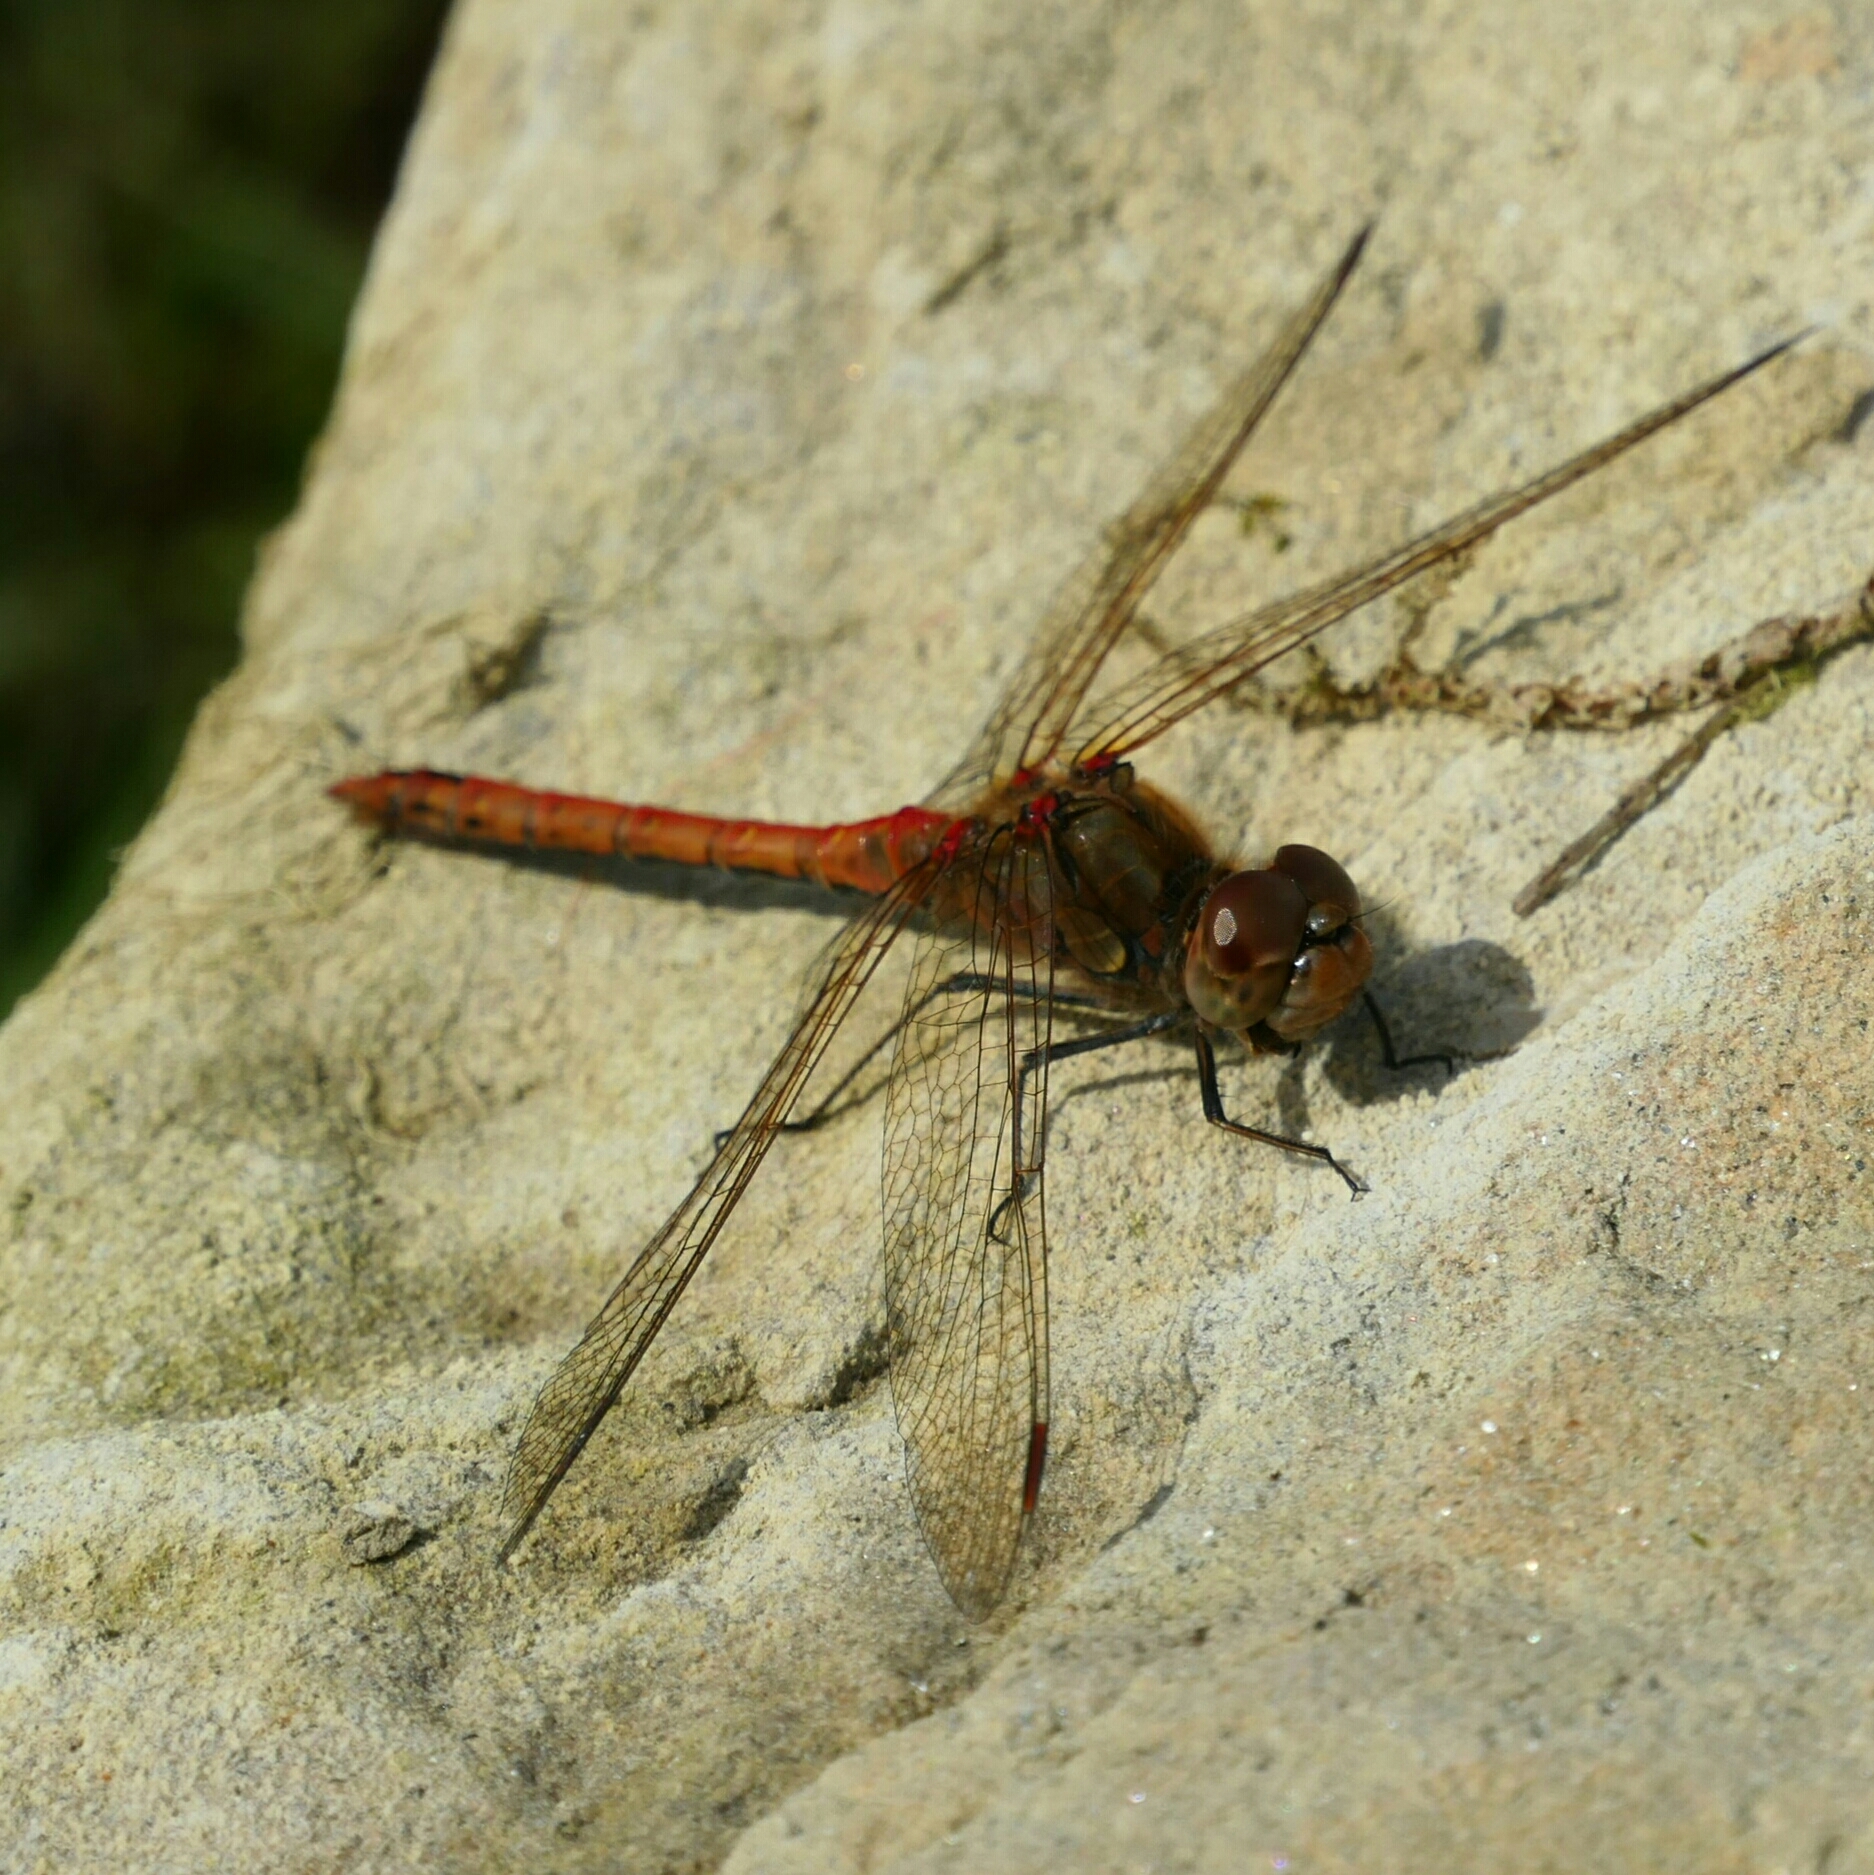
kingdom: Animalia
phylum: Arthropoda
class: Insecta
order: Odonata
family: Libellulidae
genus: Sympetrum
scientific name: Sympetrum striolatum
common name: Common darter
